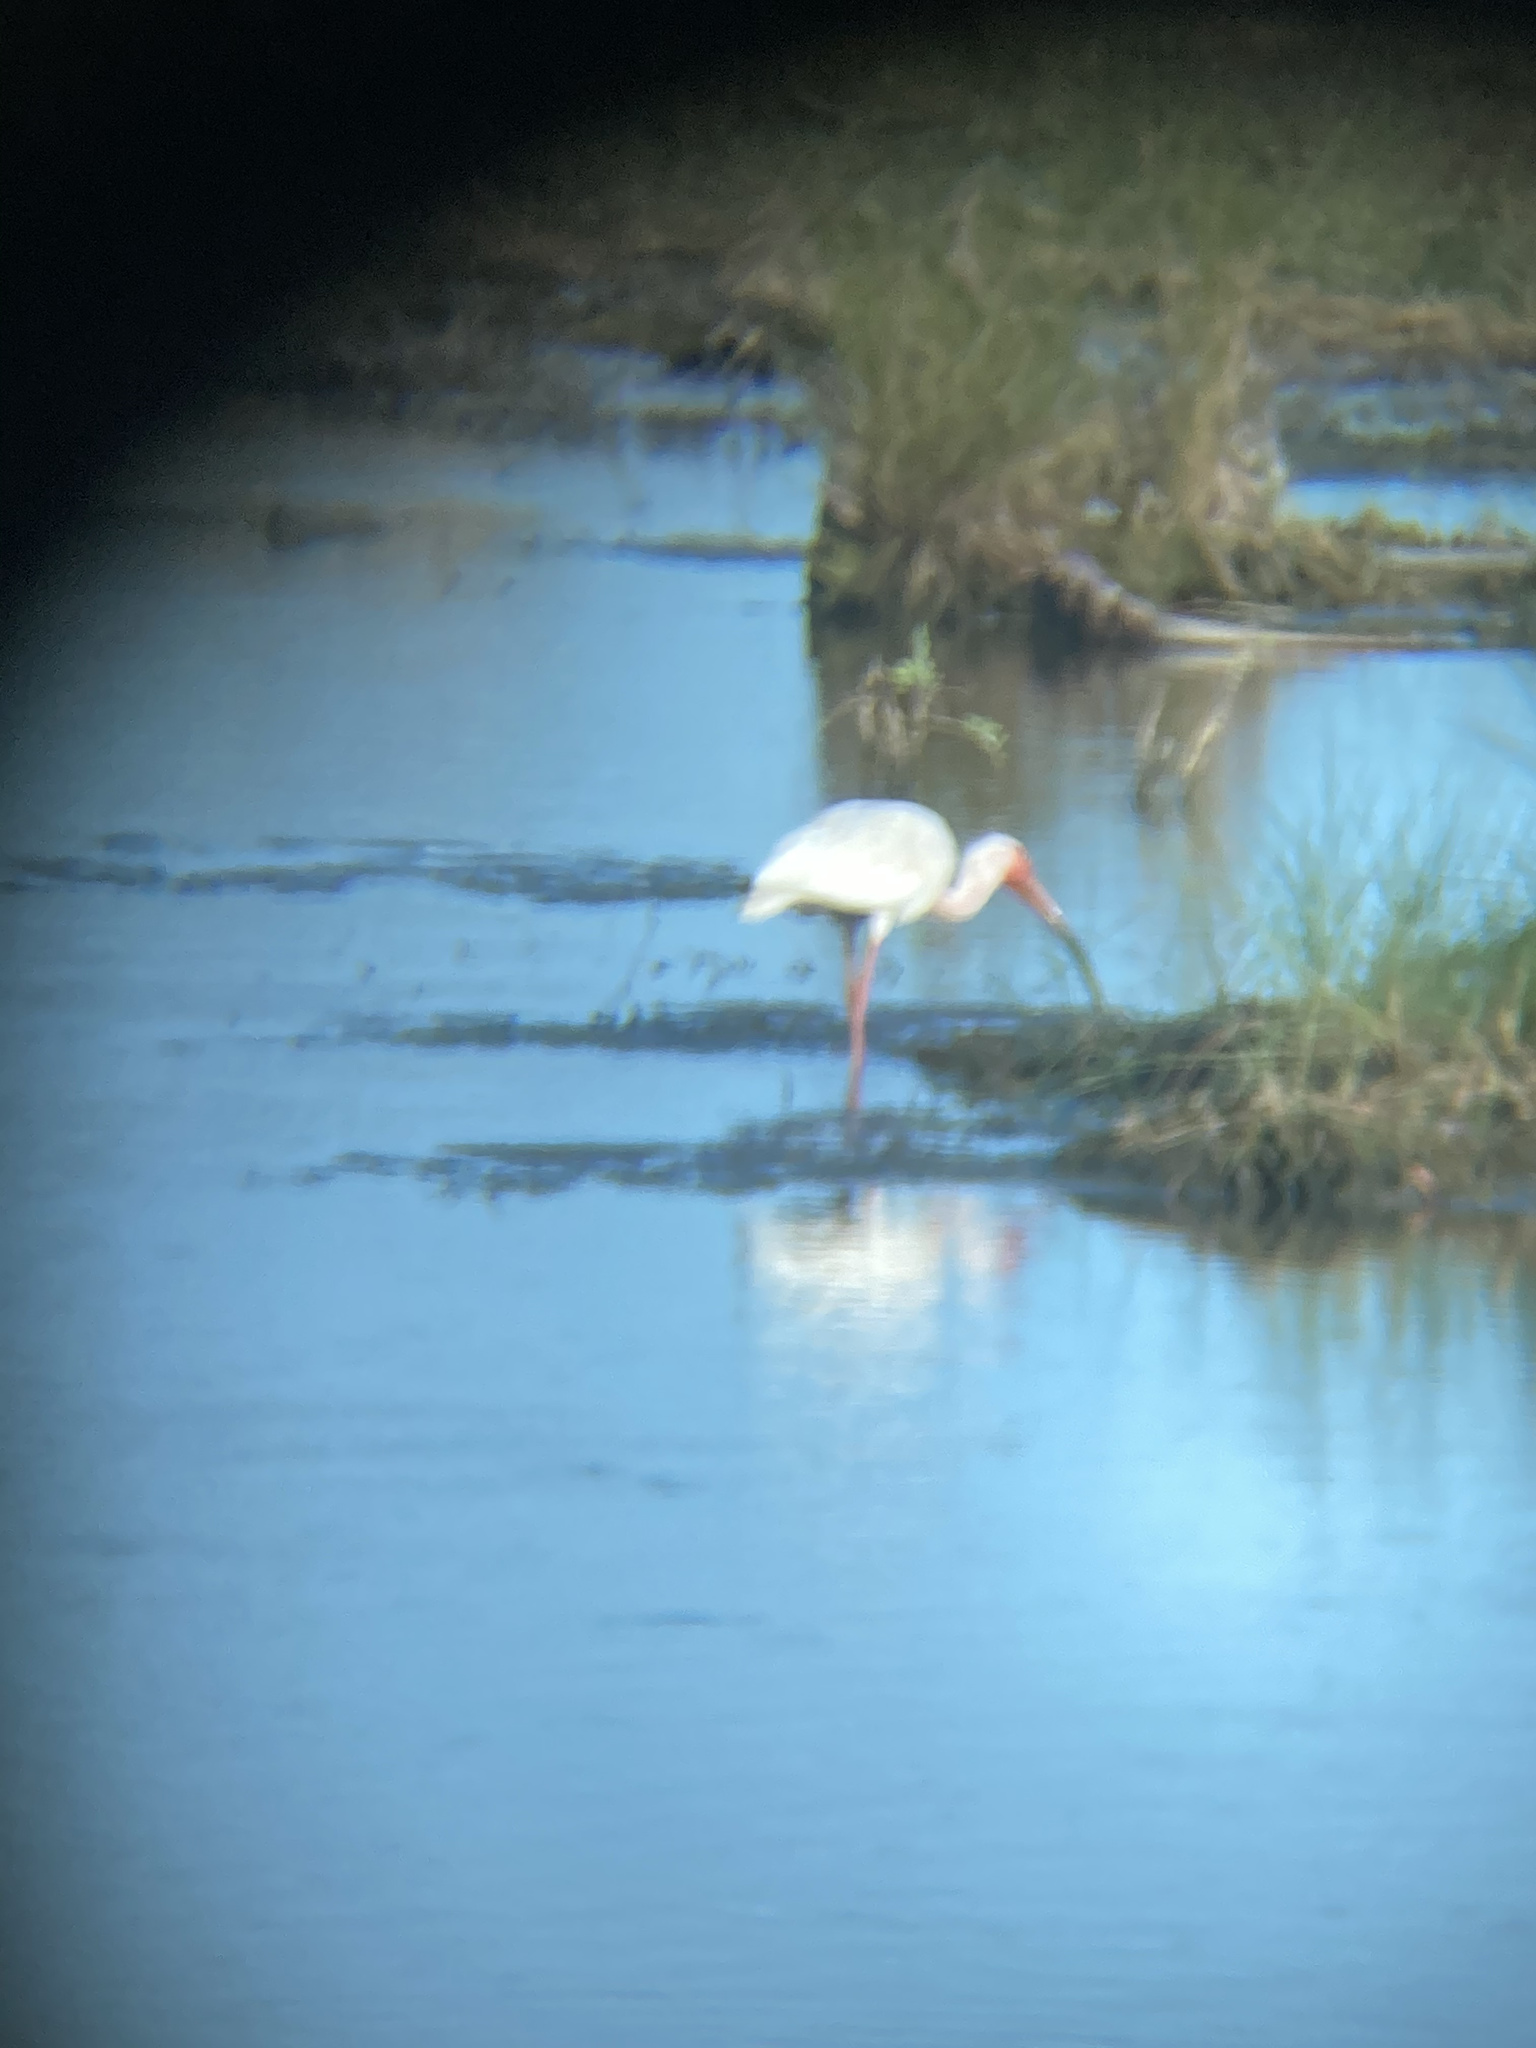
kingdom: Animalia
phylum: Chordata
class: Aves
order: Pelecaniformes
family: Threskiornithidae
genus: Eudocimus
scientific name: Eudocimus albus
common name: White ibis
